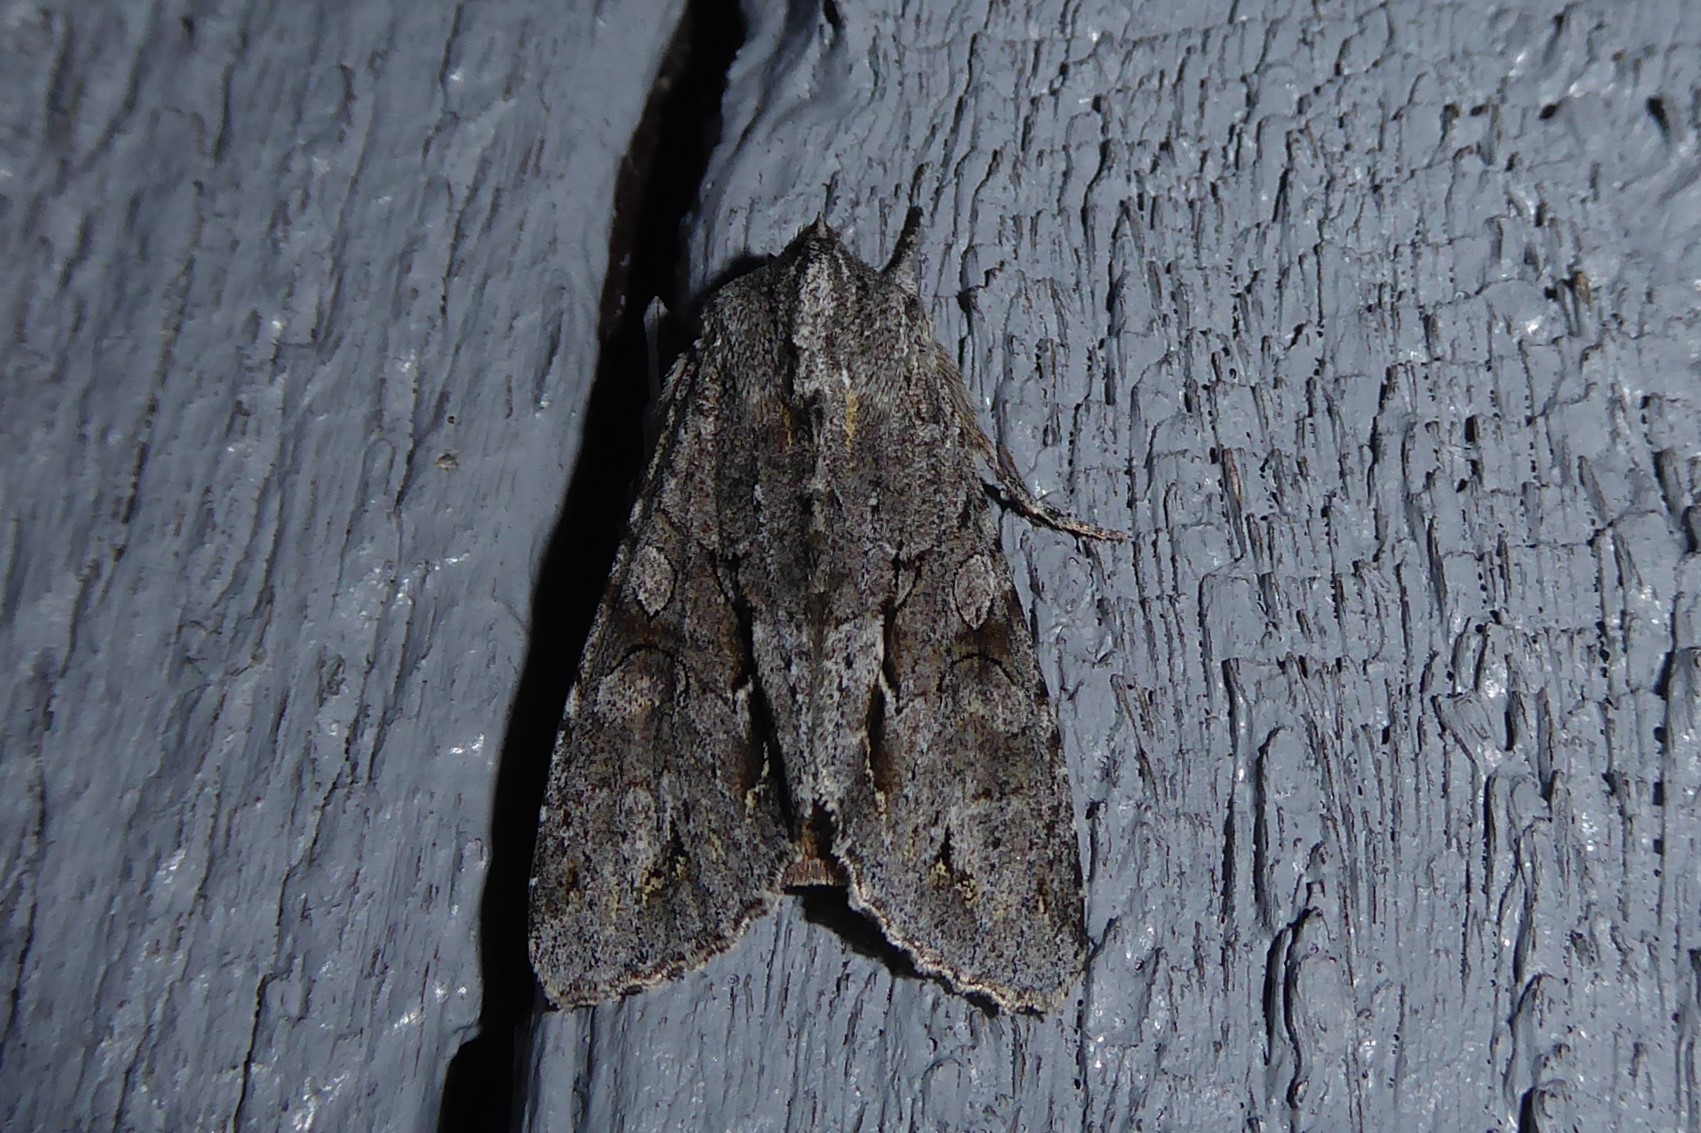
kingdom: Animalia
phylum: Arthropoda
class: Insecta
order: Lepidoptera
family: Noctuidae
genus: Ichneutica
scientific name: Ichneutica
